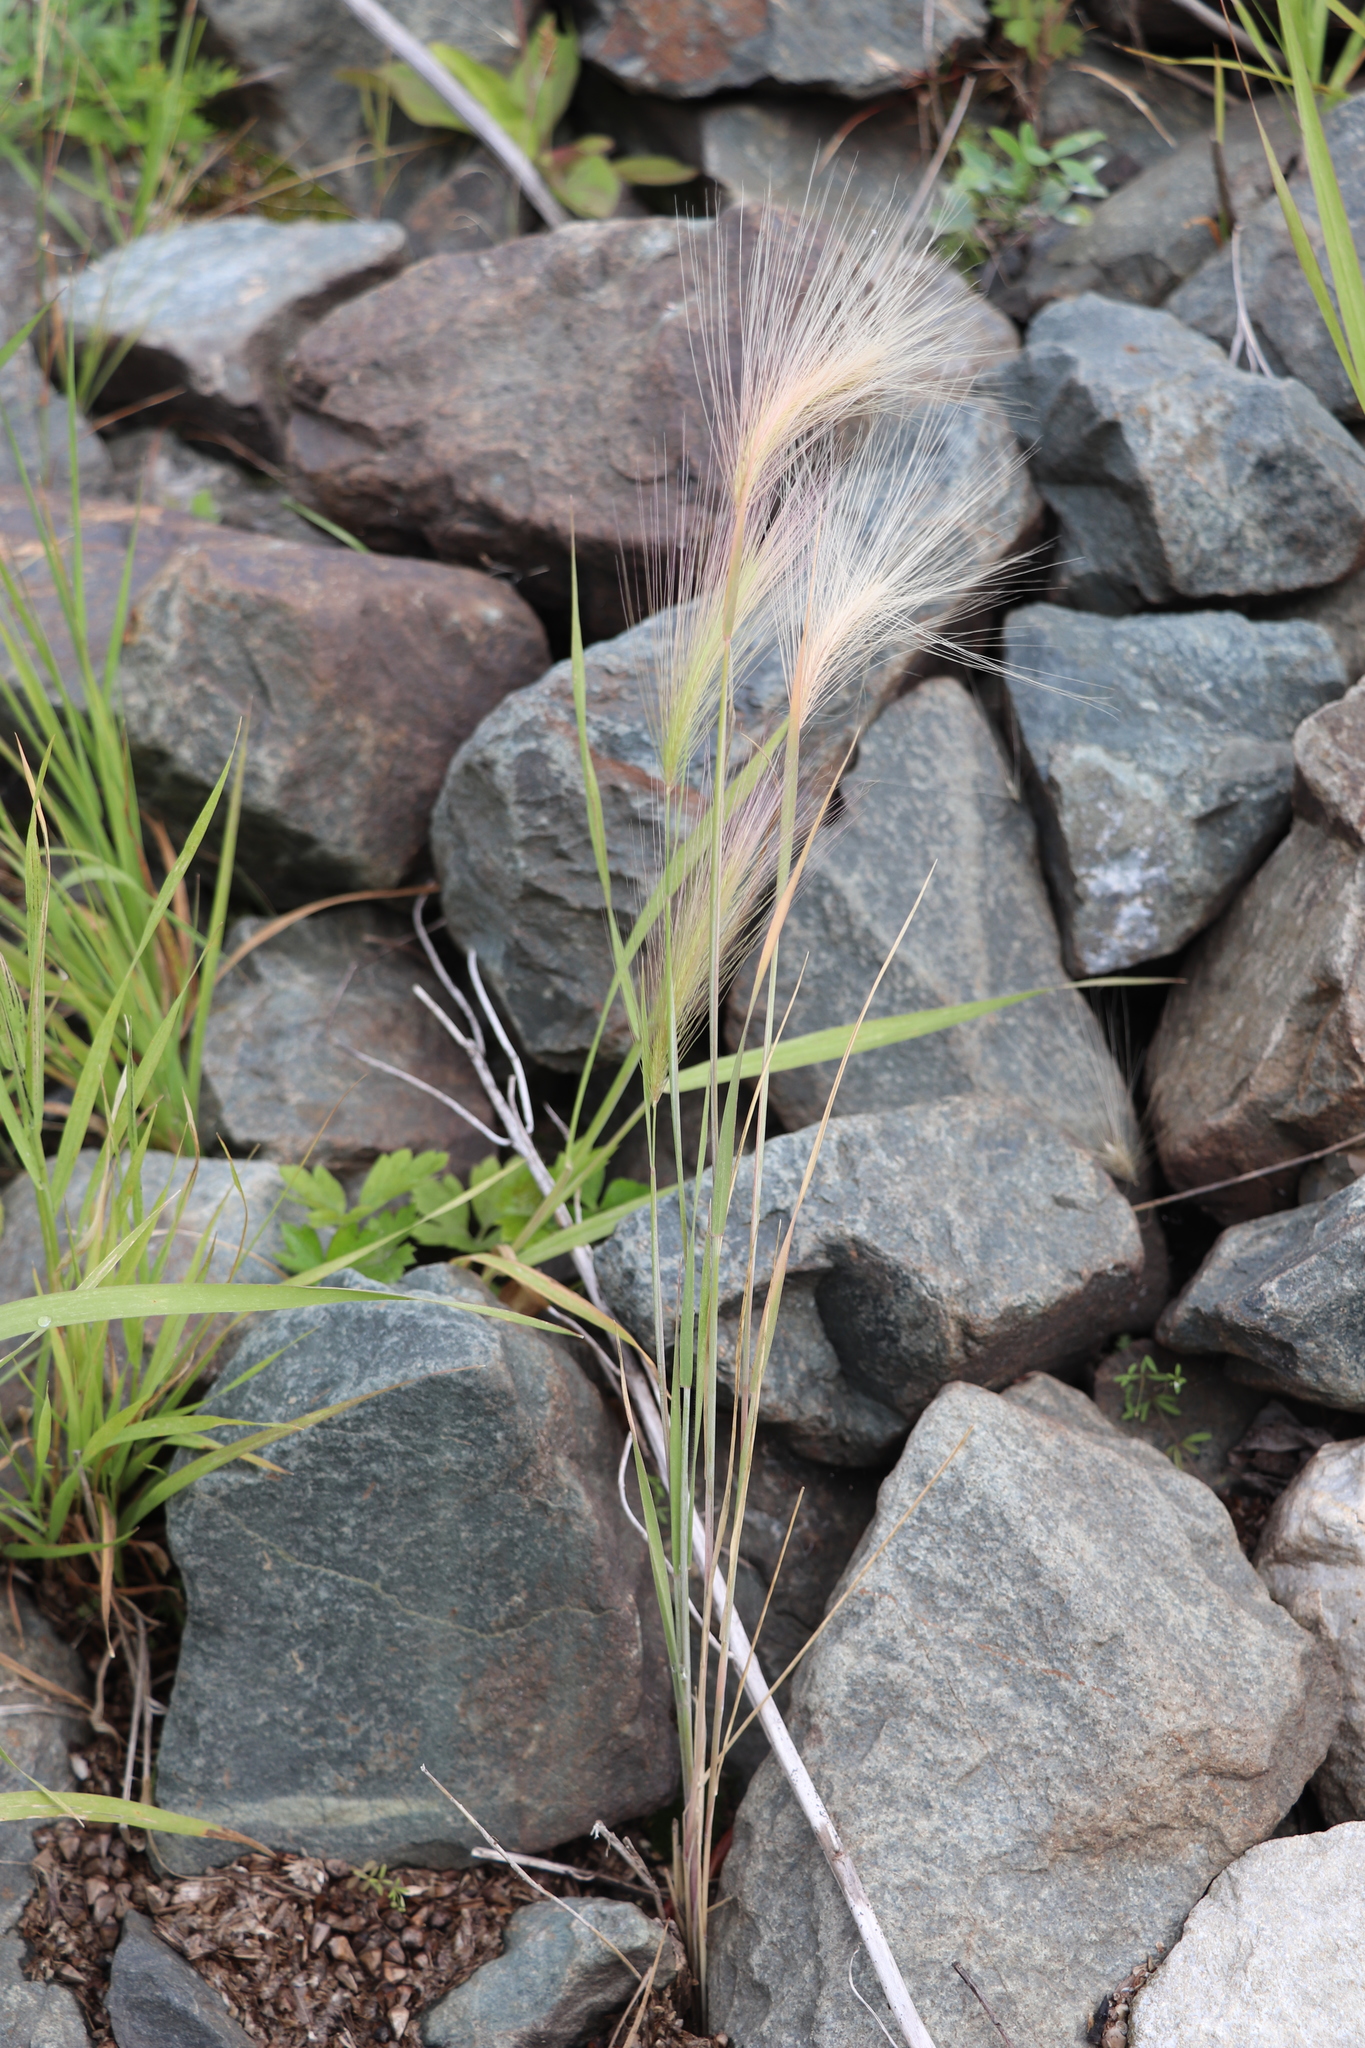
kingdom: Plantae
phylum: Tracheophyta
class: Liliopsida
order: Poales
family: Poaceae
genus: Hordeum
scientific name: Hordeum jubatum
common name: Foxtail barley
